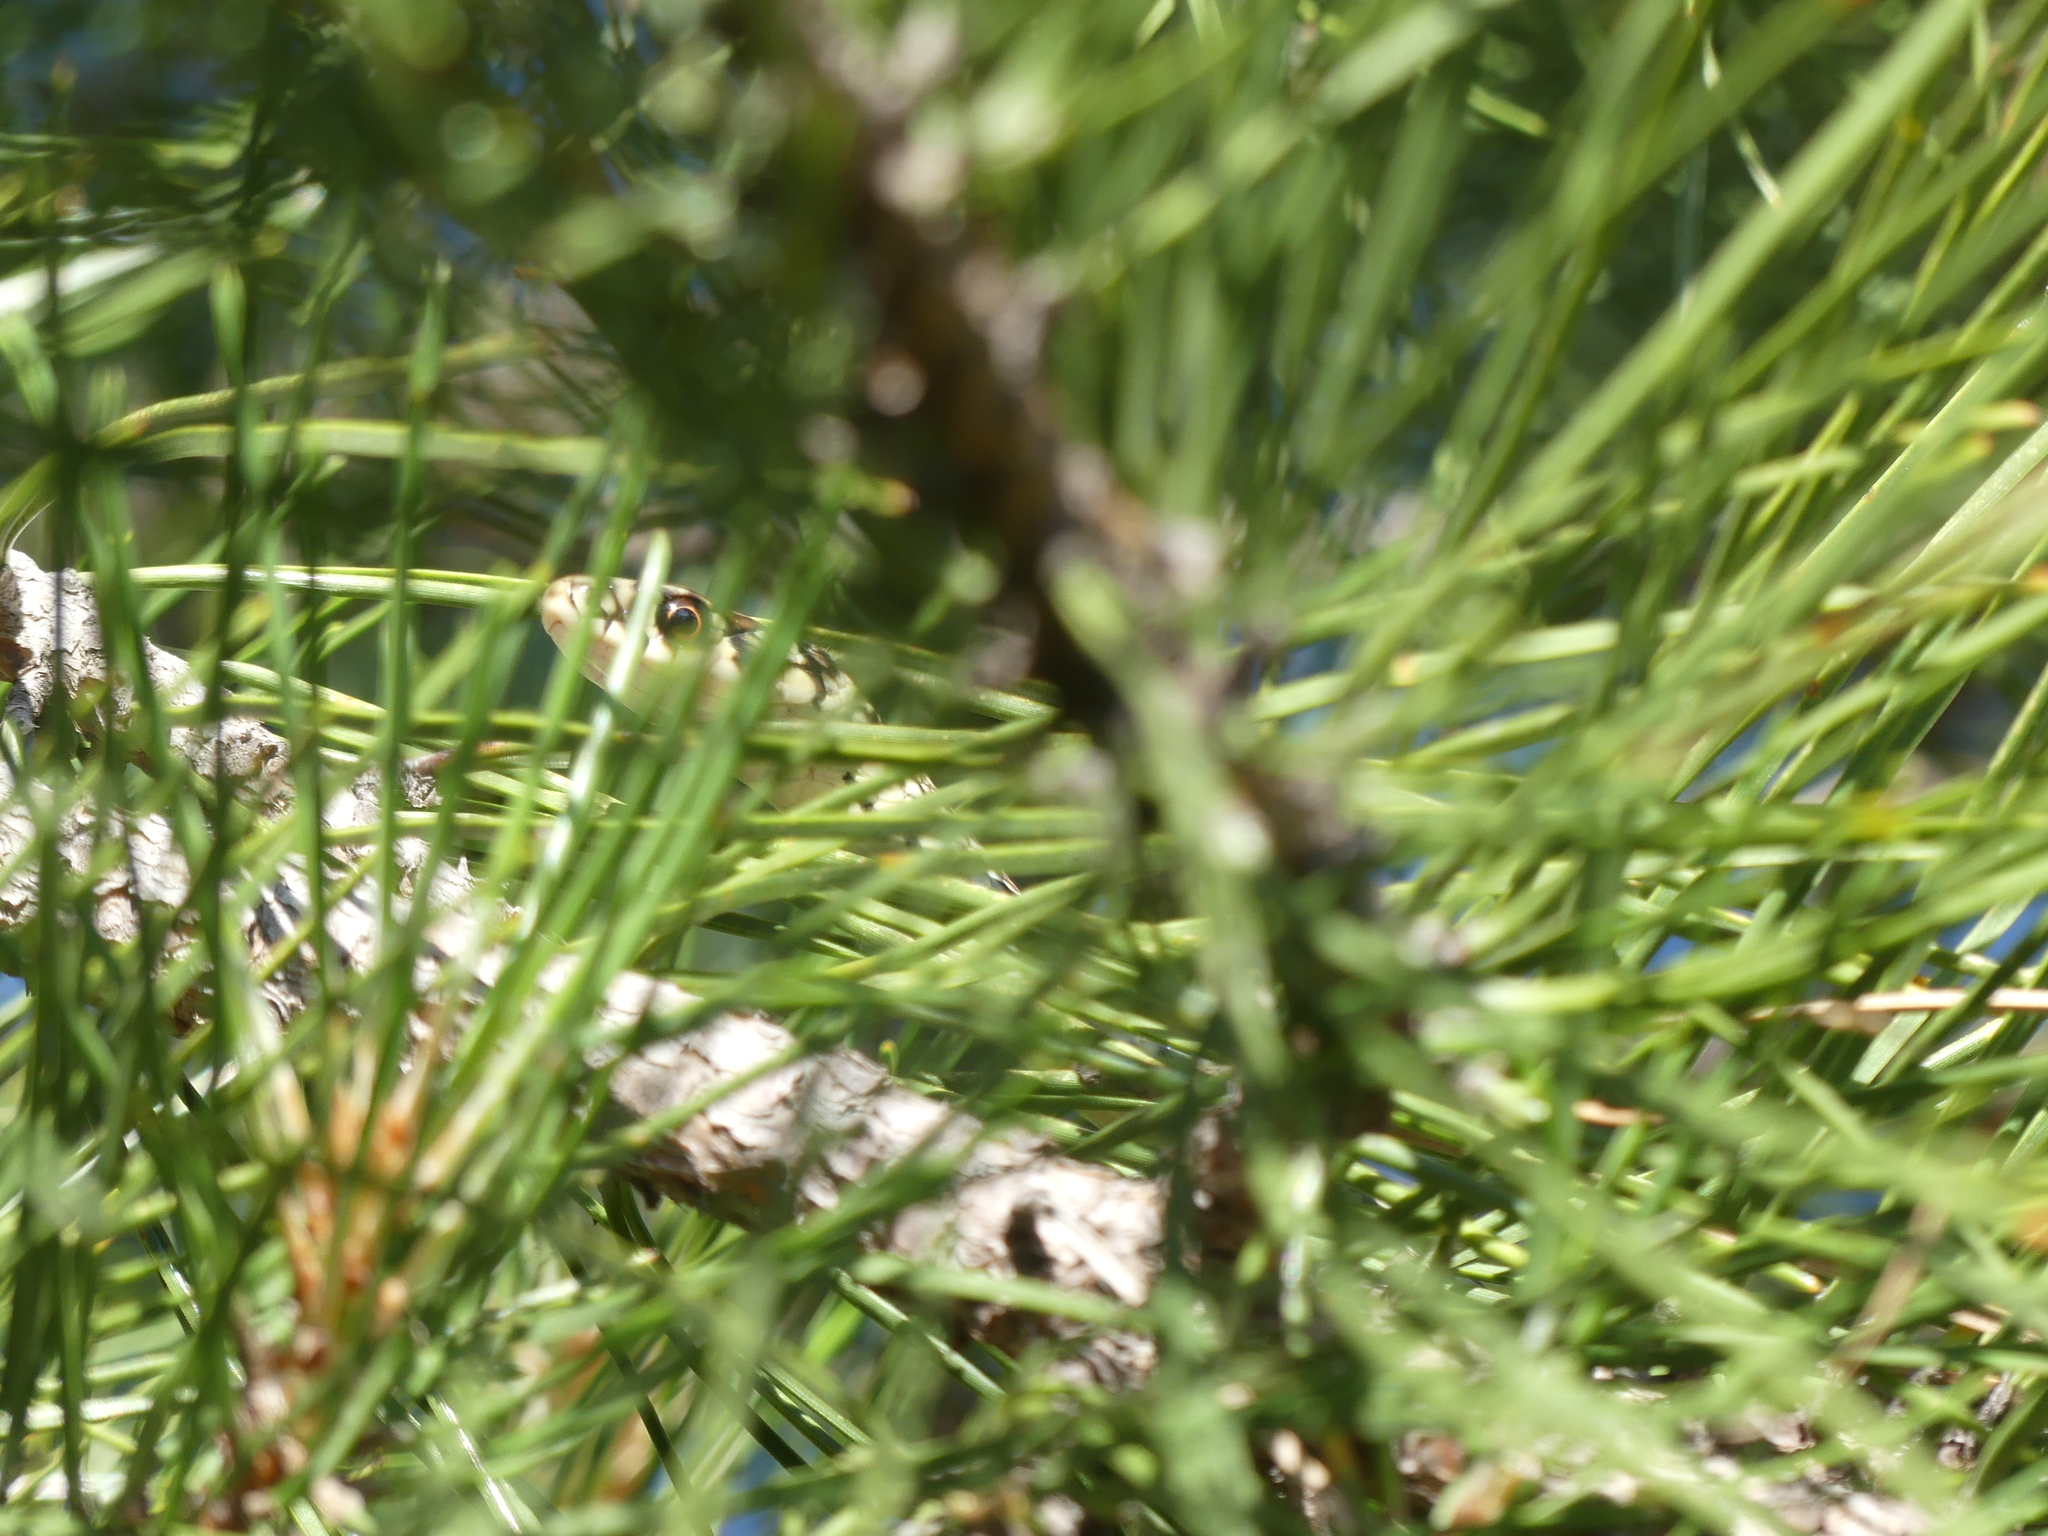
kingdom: Animalia
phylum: Chordata
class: Squamata
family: Colubridae
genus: Hierophis
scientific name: Hierophis viridiflavus
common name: Green whip snake
